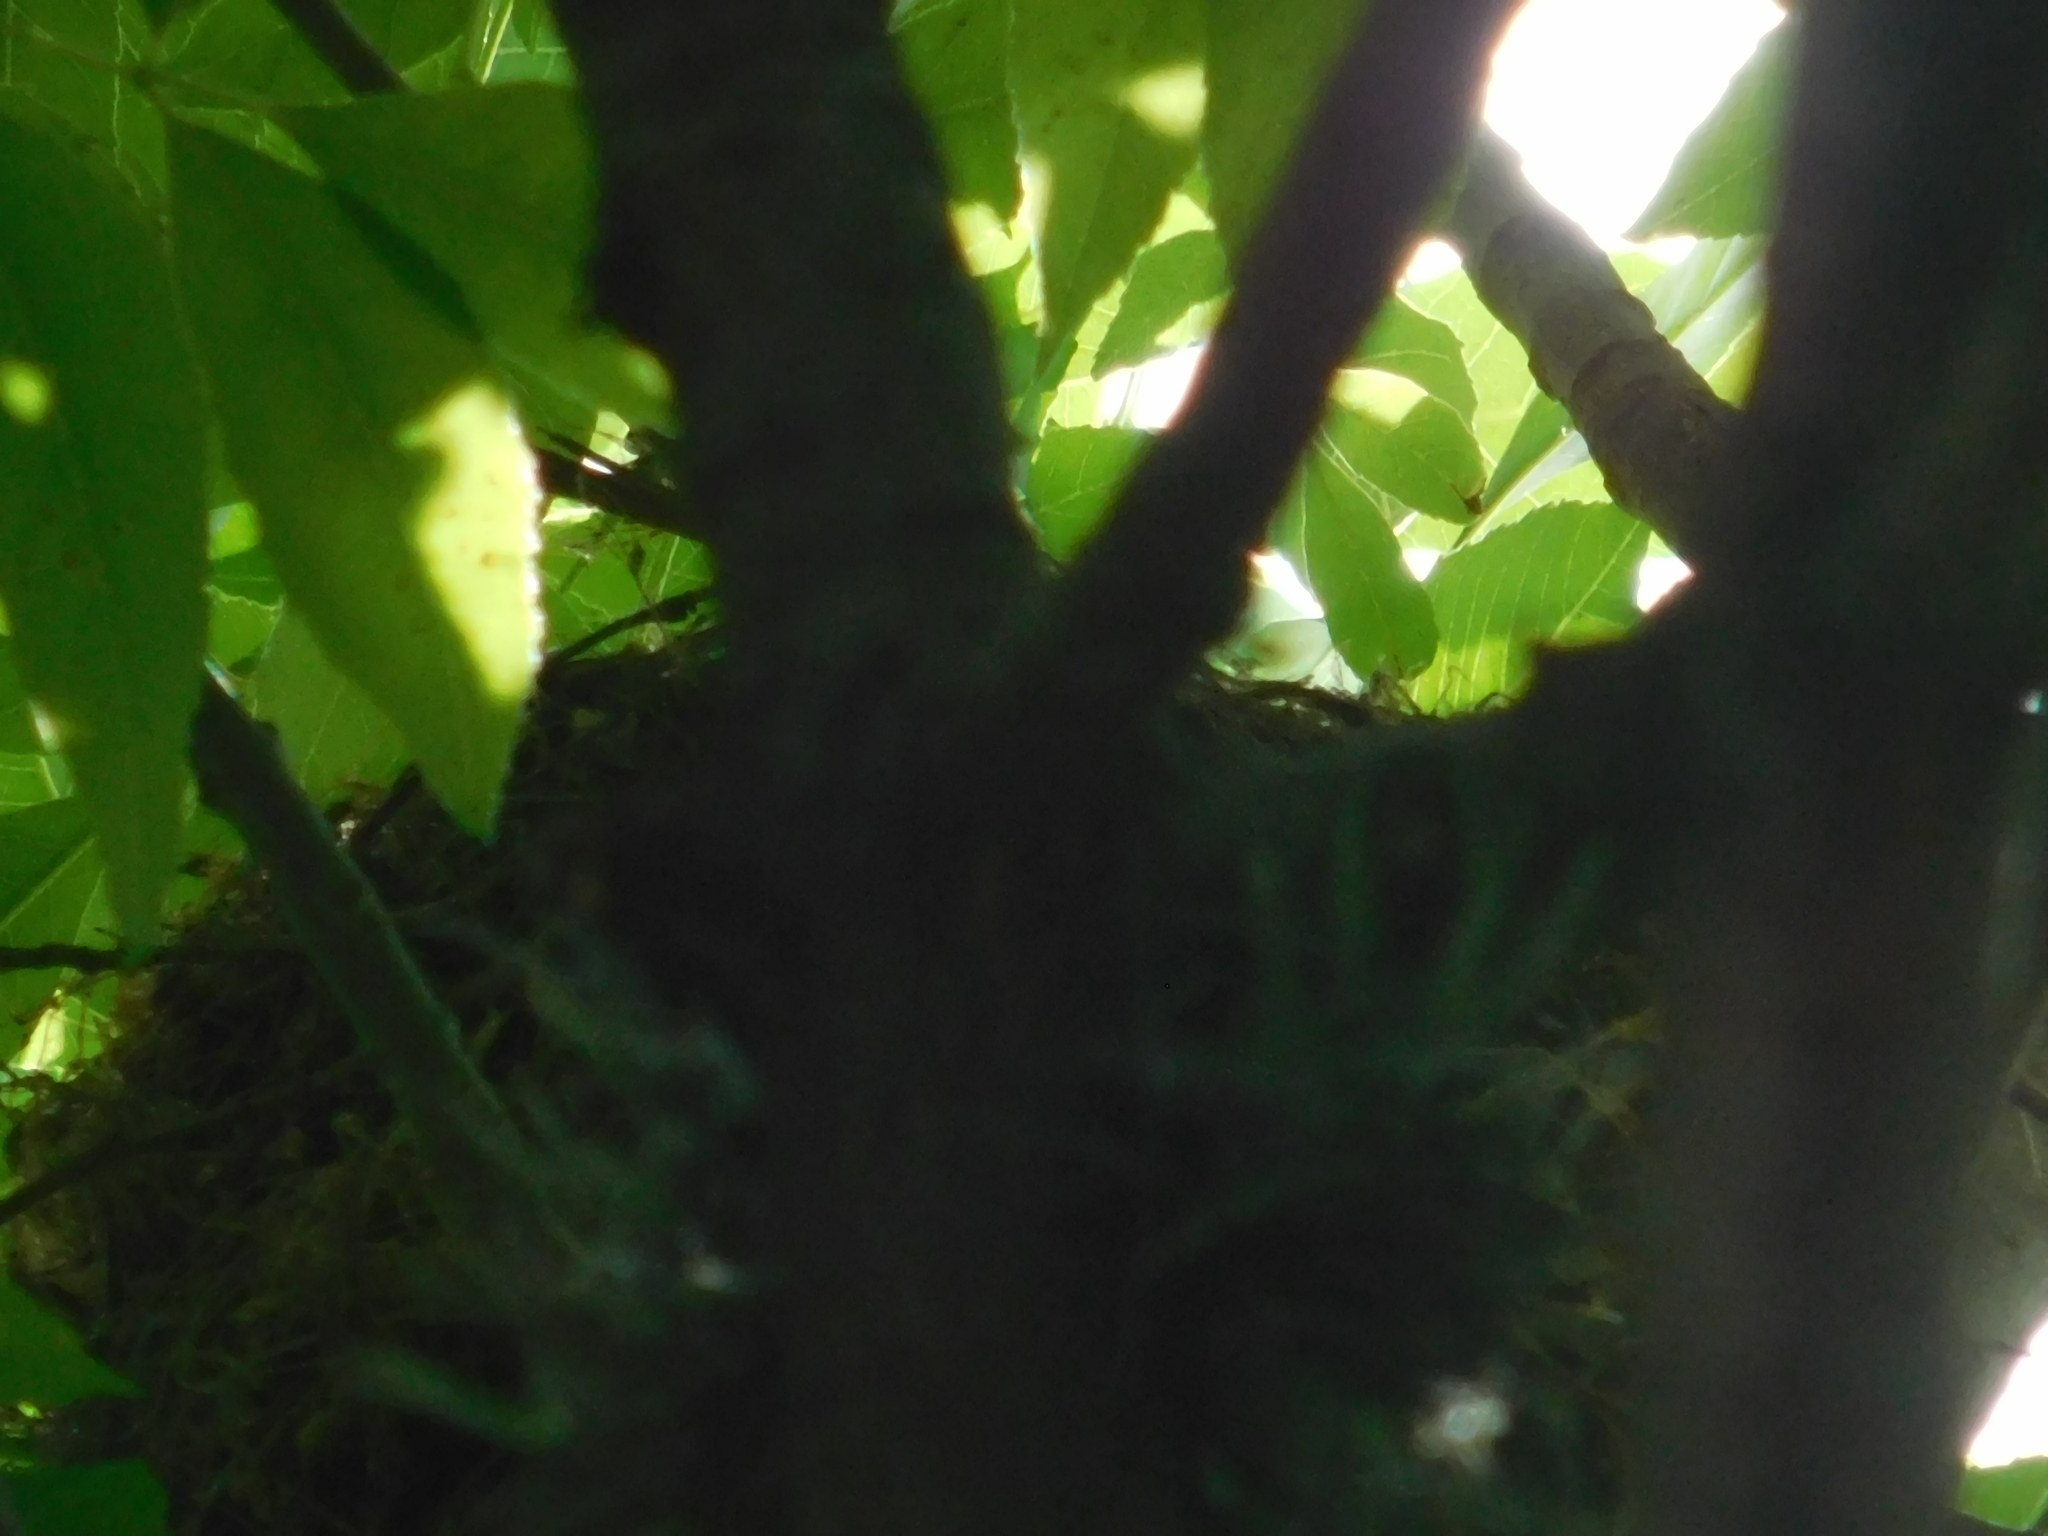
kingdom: Animalia
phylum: Chordata
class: Aves
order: Passeriformes
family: Turdidae
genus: Turdus
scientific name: Turdus rufiventris
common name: Rufous-bellied thrush
